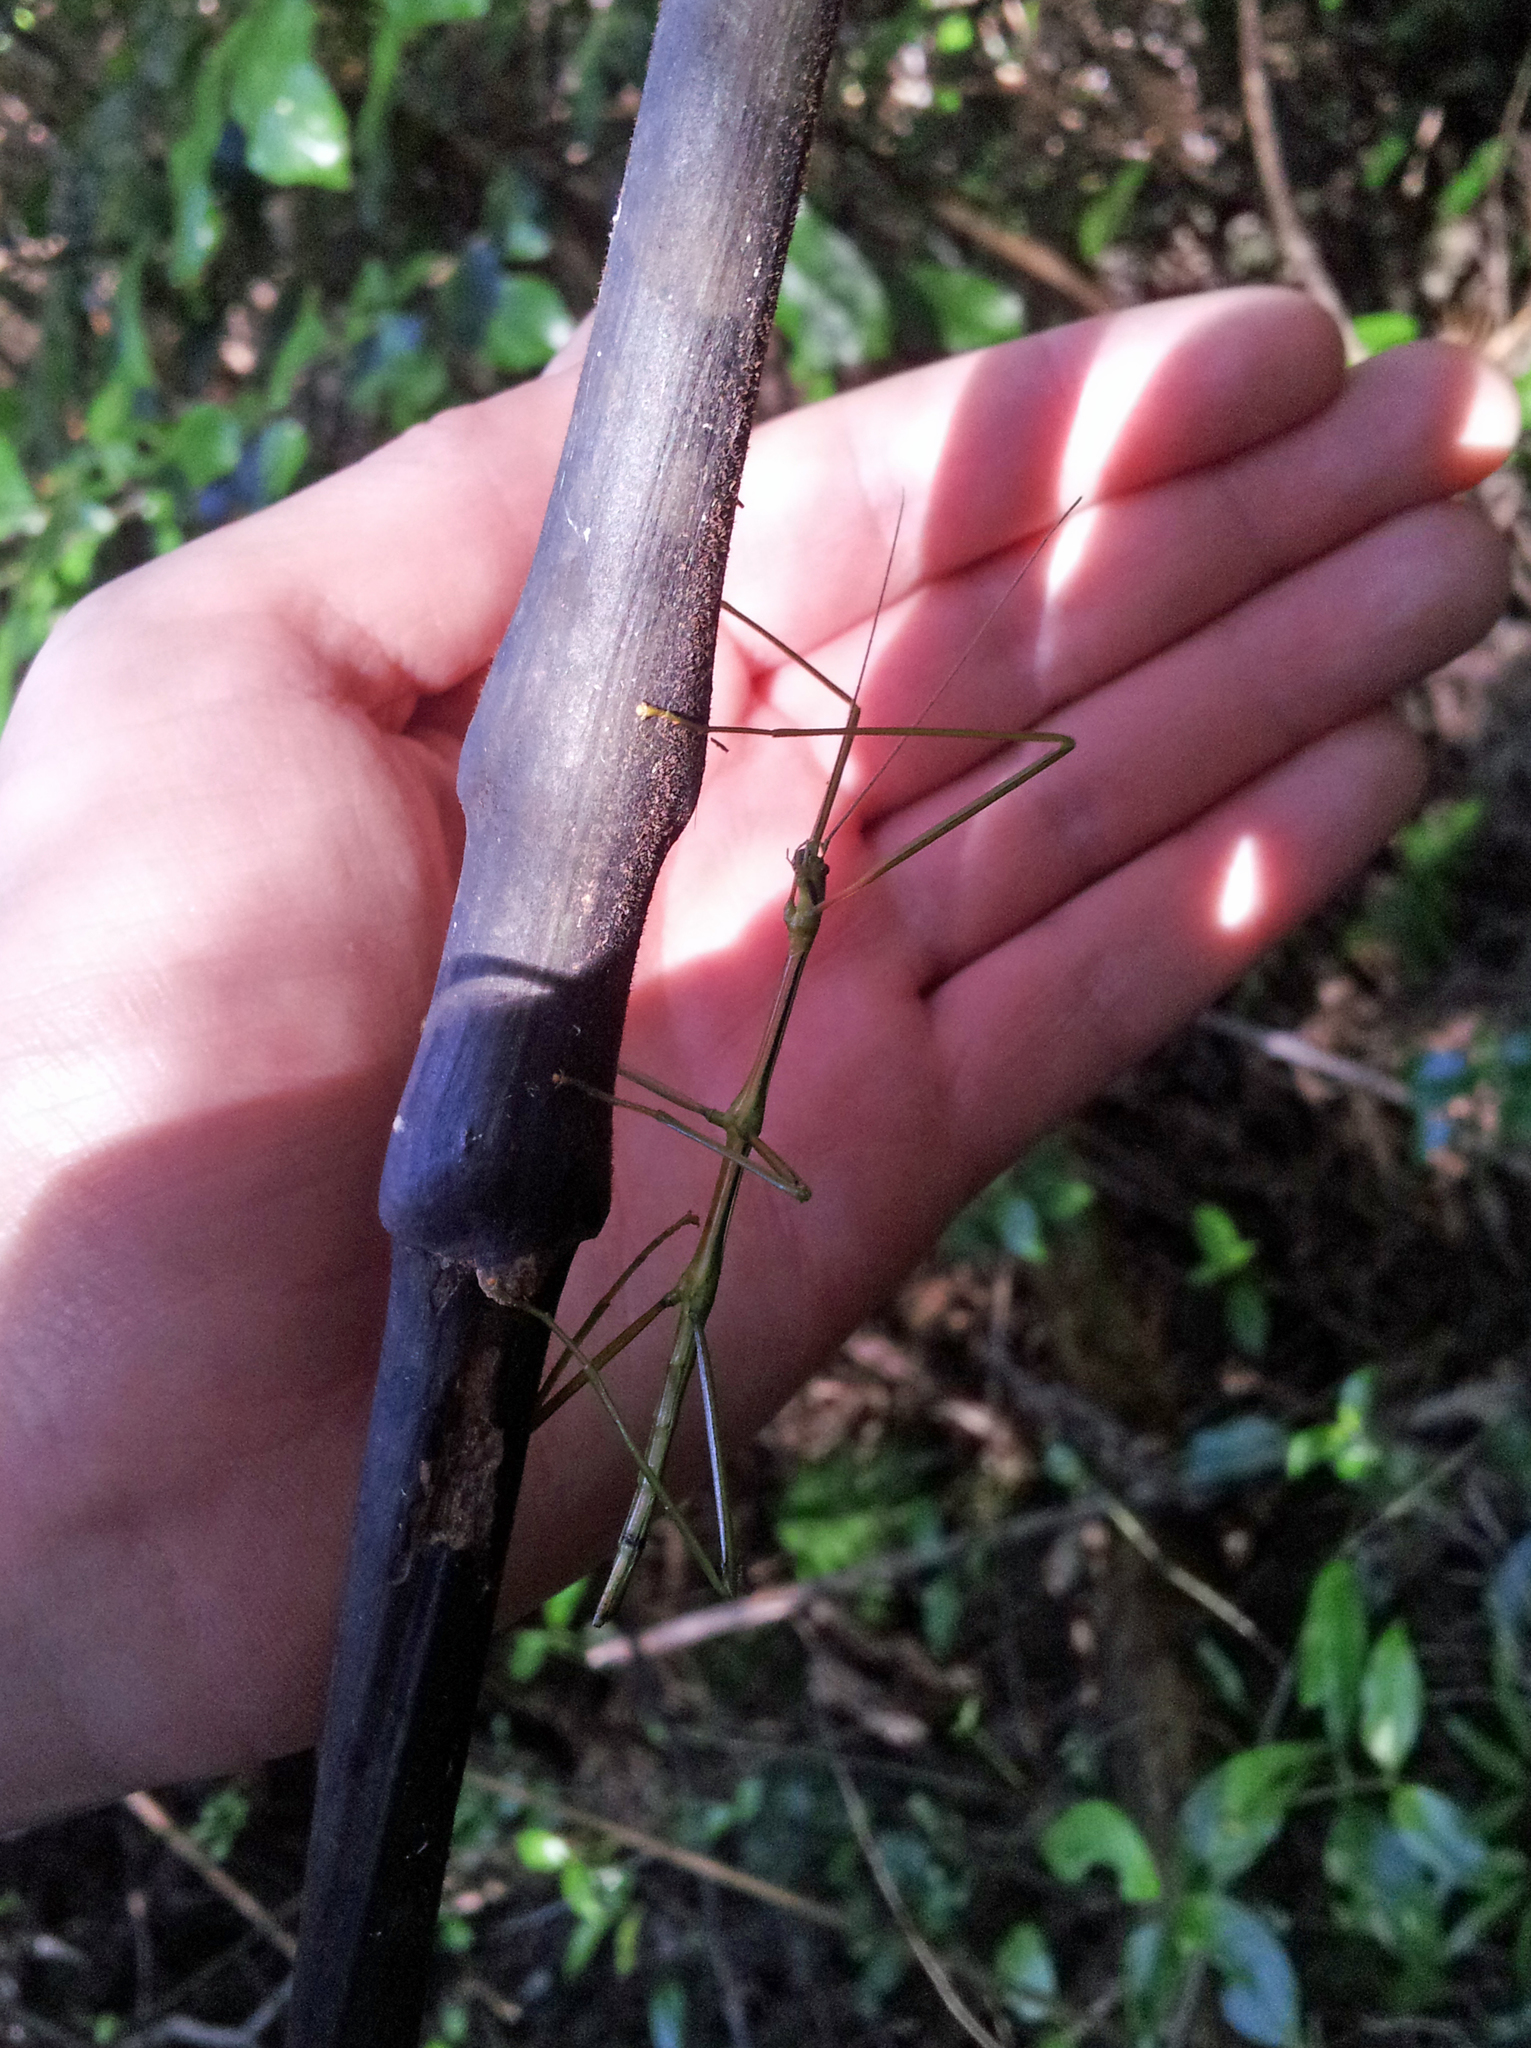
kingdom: Animalia
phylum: Arthropoda
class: Insecta
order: Phasmida
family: Phasmatidae
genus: Clitarchus
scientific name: Clitarchus hookeri
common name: Smooth stick insect
